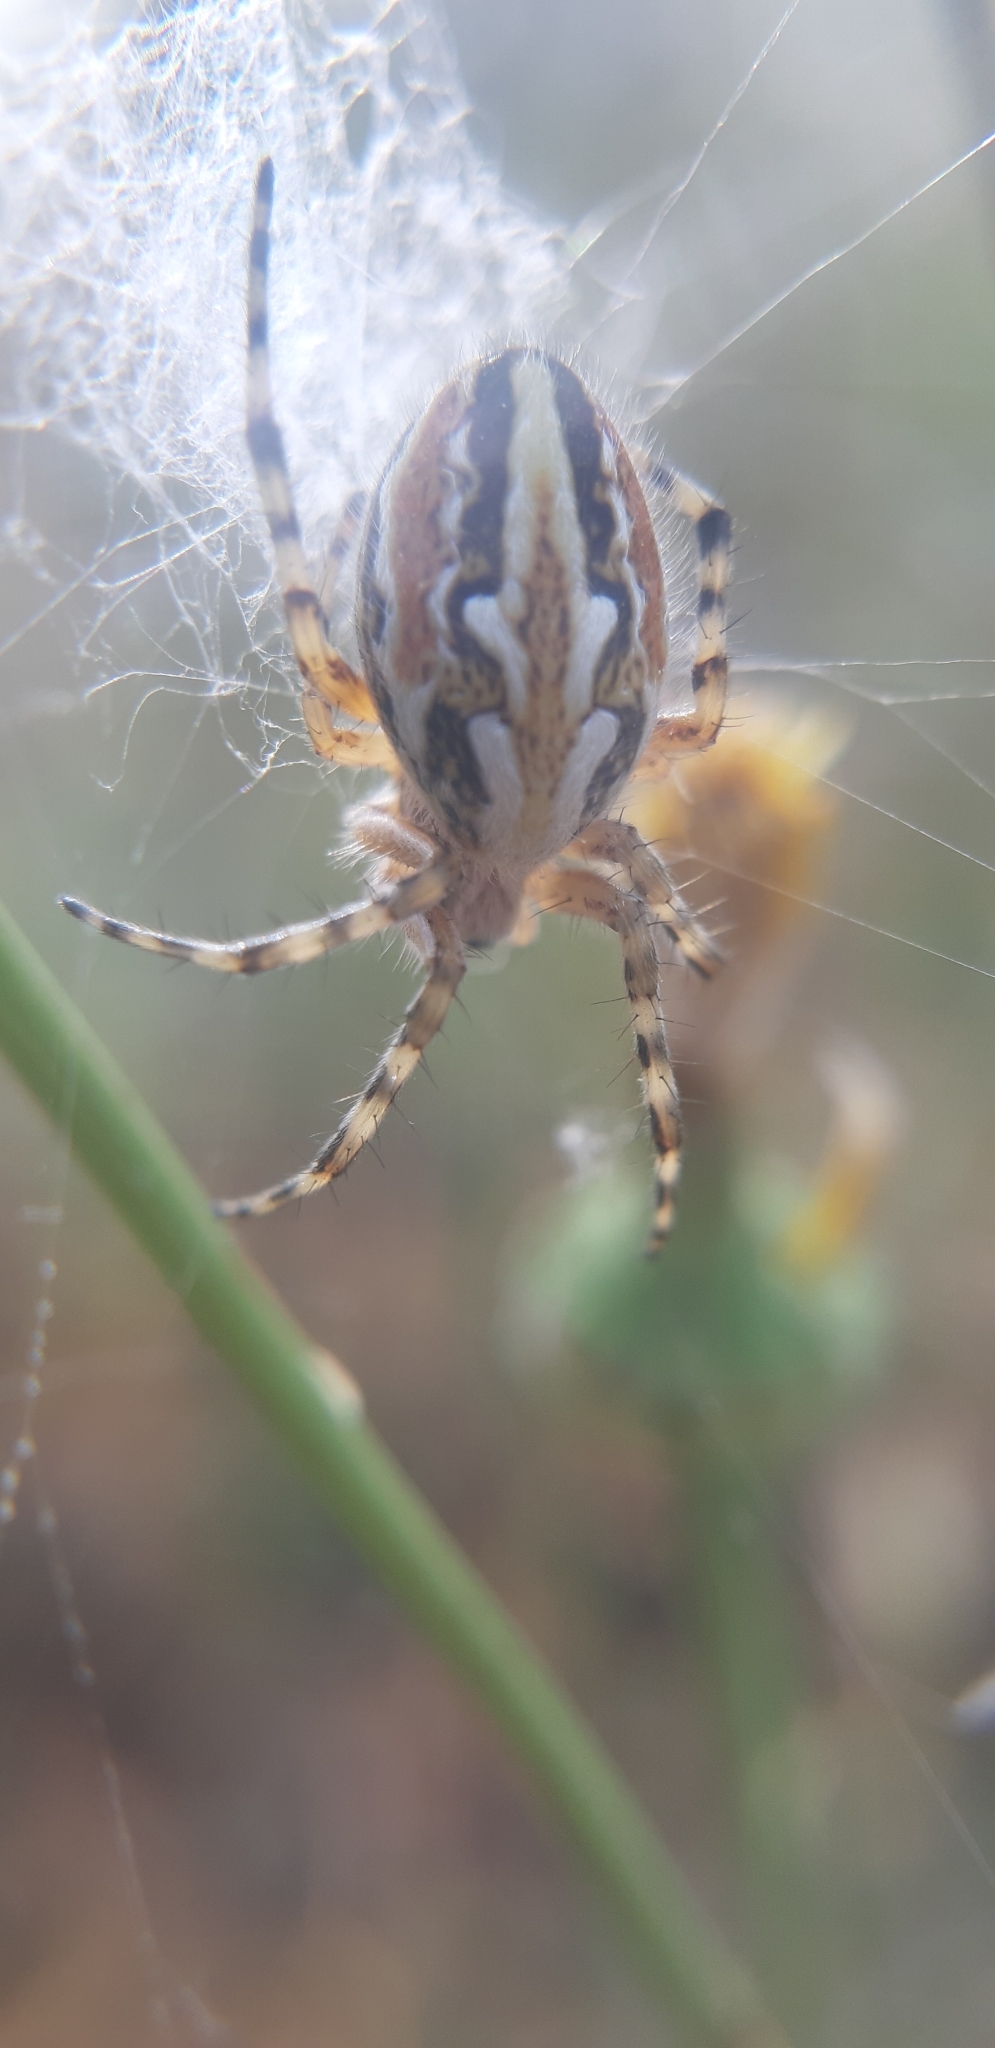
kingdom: Animalia
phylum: Arthropoda
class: Arachnida
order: Araneae
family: Araneidae
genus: Aculepeira
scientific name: Aculepeira armida
